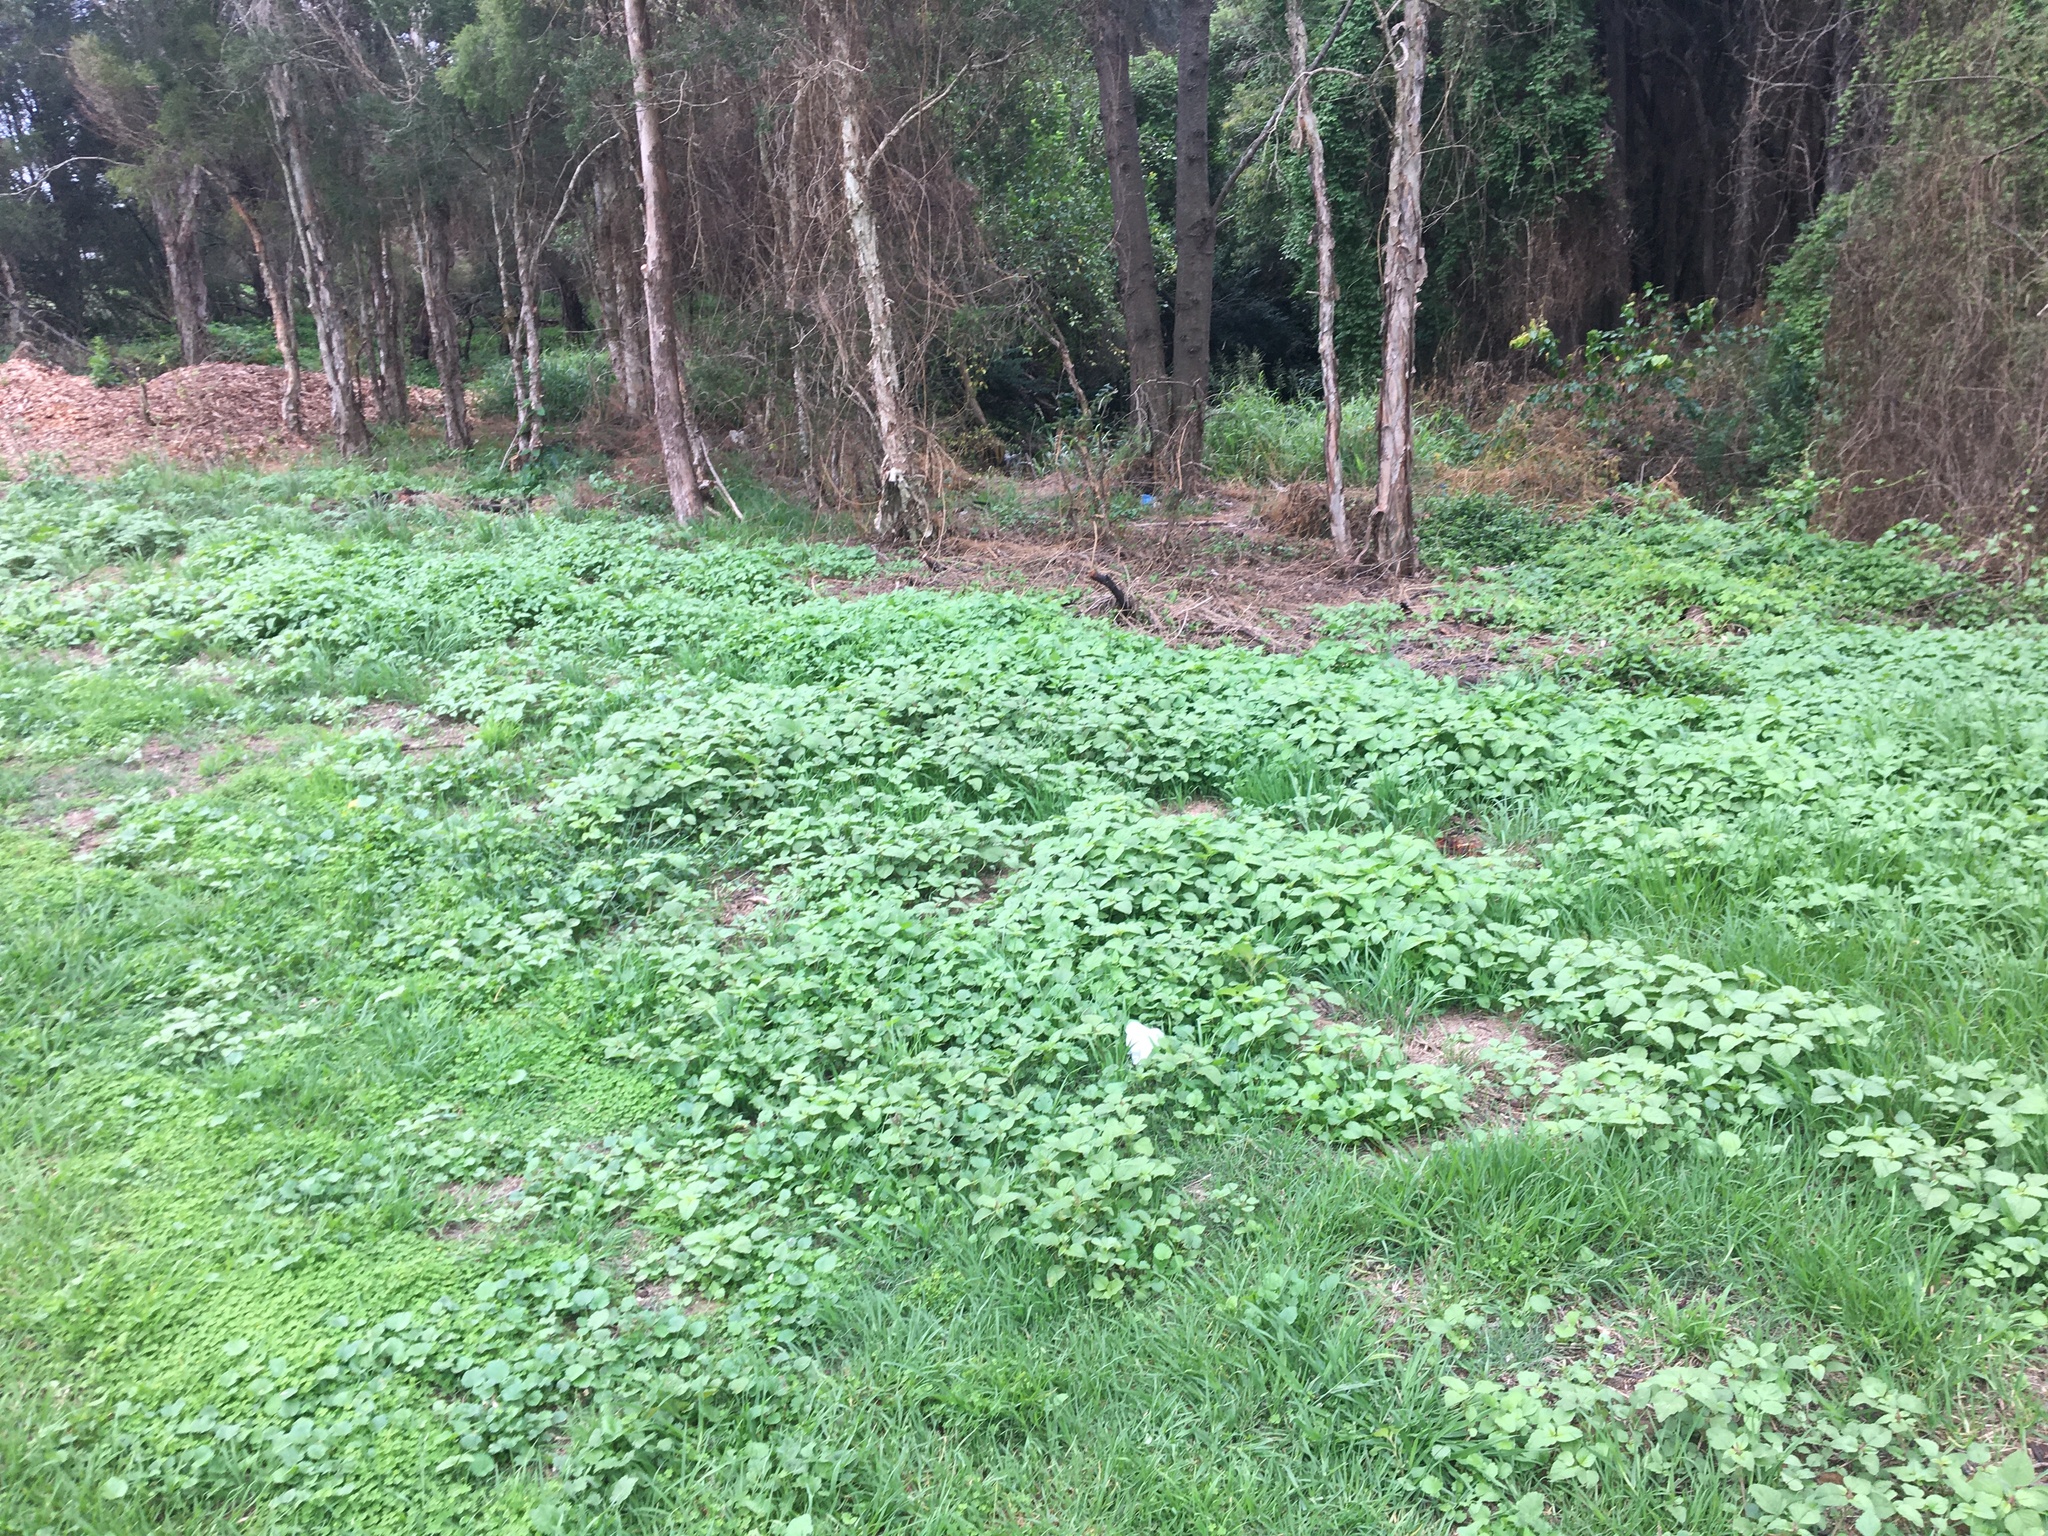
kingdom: Plantae
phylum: Tracheophyta
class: Magnoliopsida
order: Caryophyllales
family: Amaranthaceae
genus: Amaranthus
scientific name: Amaranthus viridis
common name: Slender amaranth
